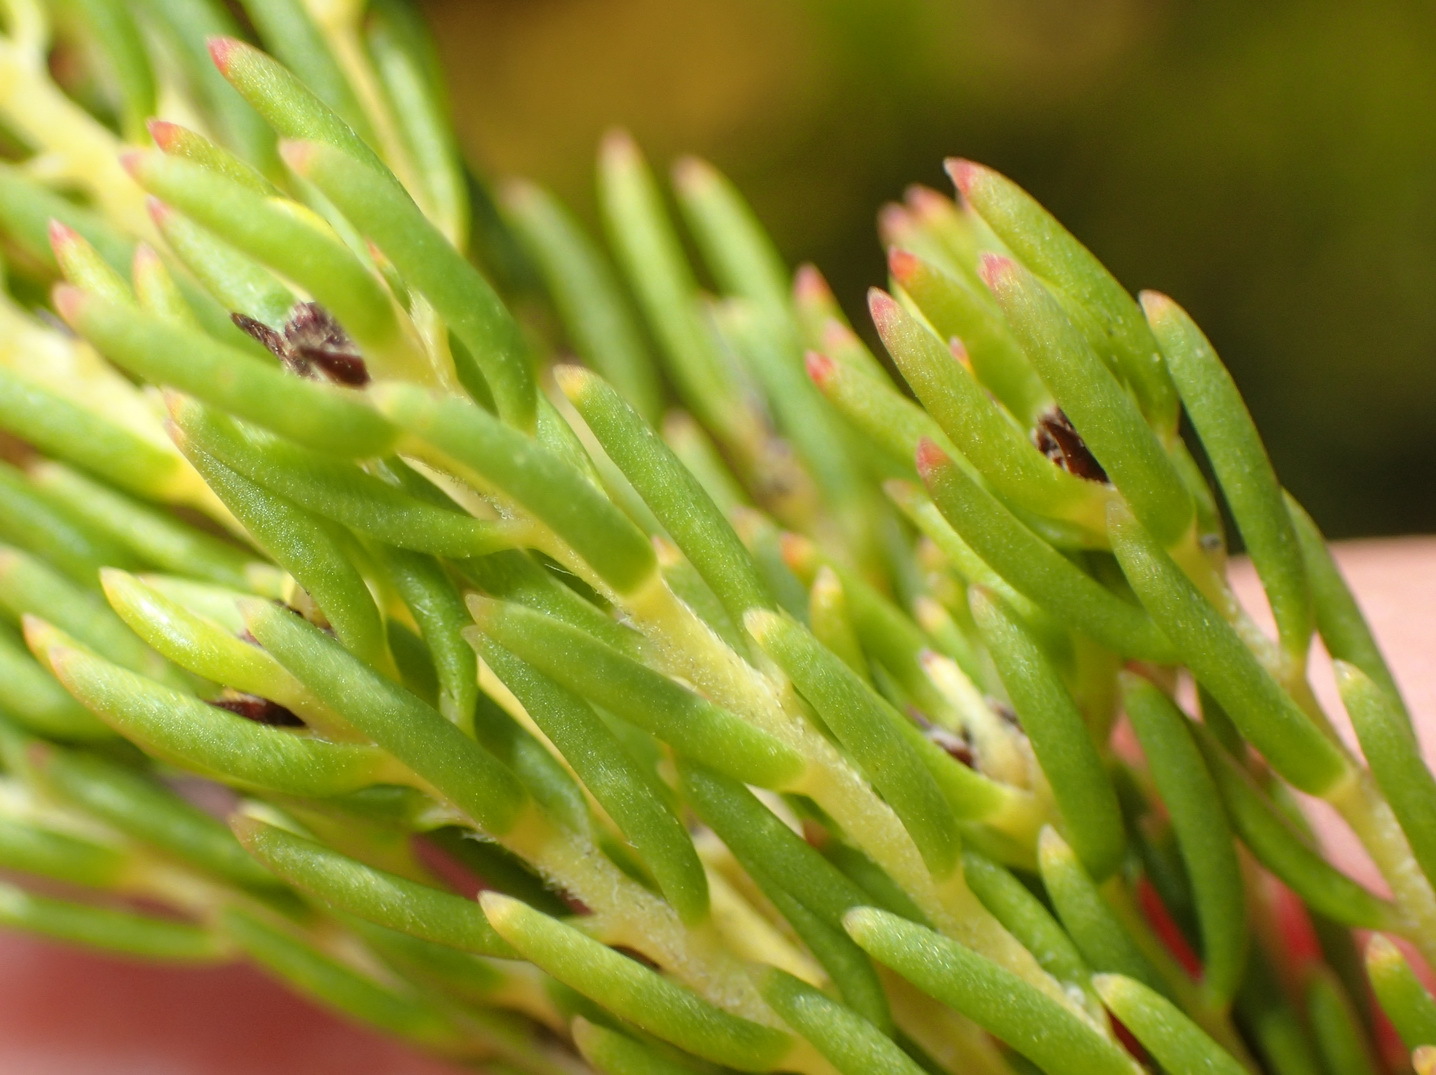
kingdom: Plantae
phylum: Tracheophyta
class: Magnoliopsida
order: Proteales
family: Proteaceae
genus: Leucadendron
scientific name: Leucadendron teretifolium
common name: Needle-leaf conebush
